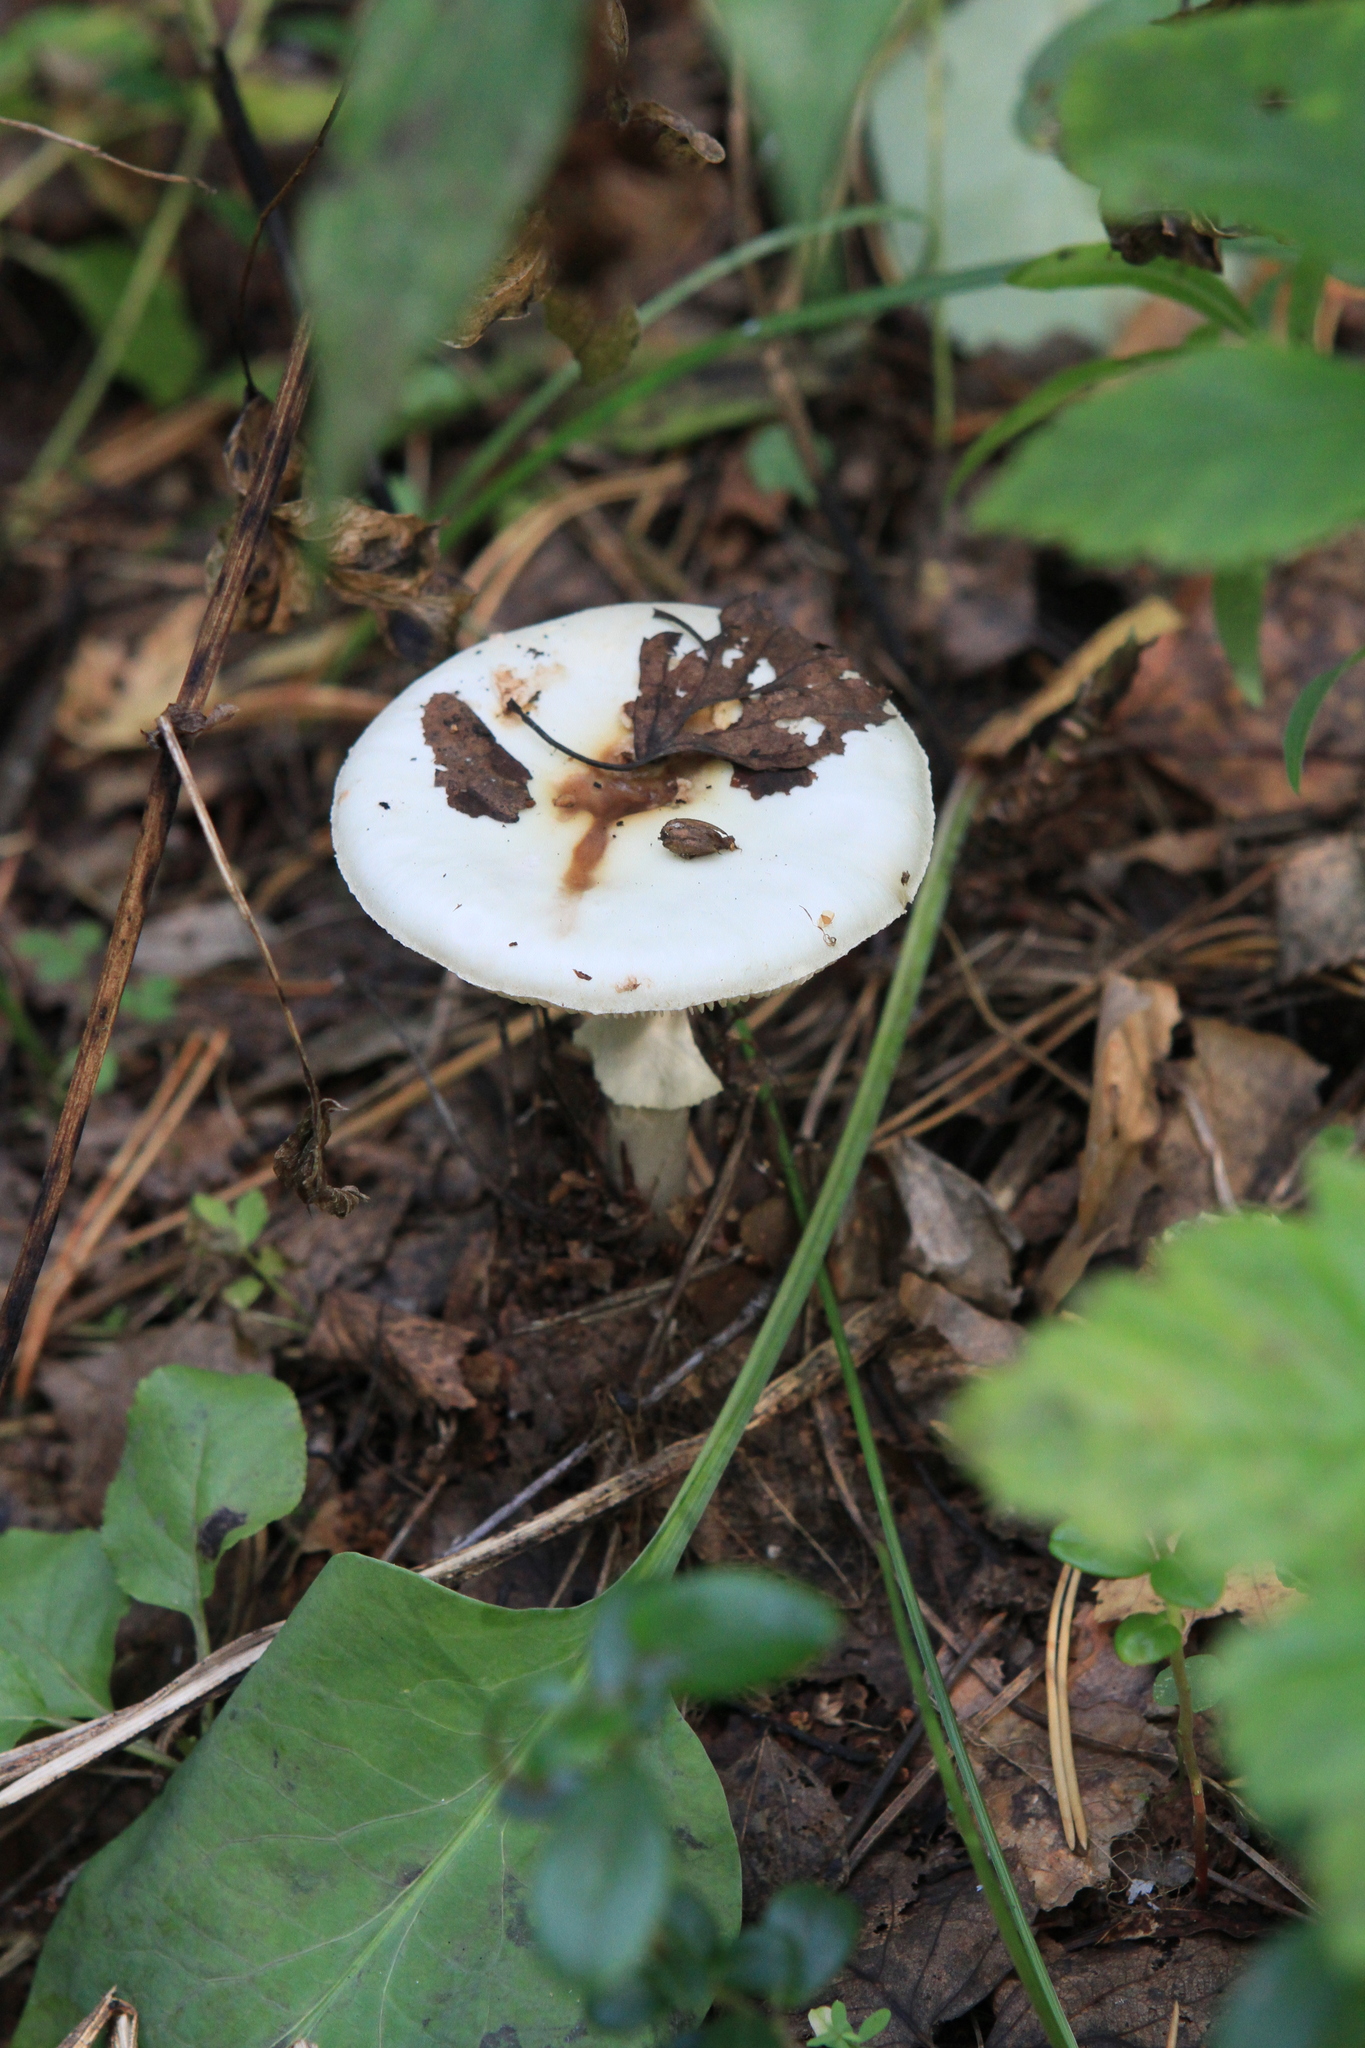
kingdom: Fungi
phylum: Basidiomycota
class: Agaricomycetes
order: Agaricales
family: Amanitaceae
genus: Amanita
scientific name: Amanita citrina
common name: False death-cap
